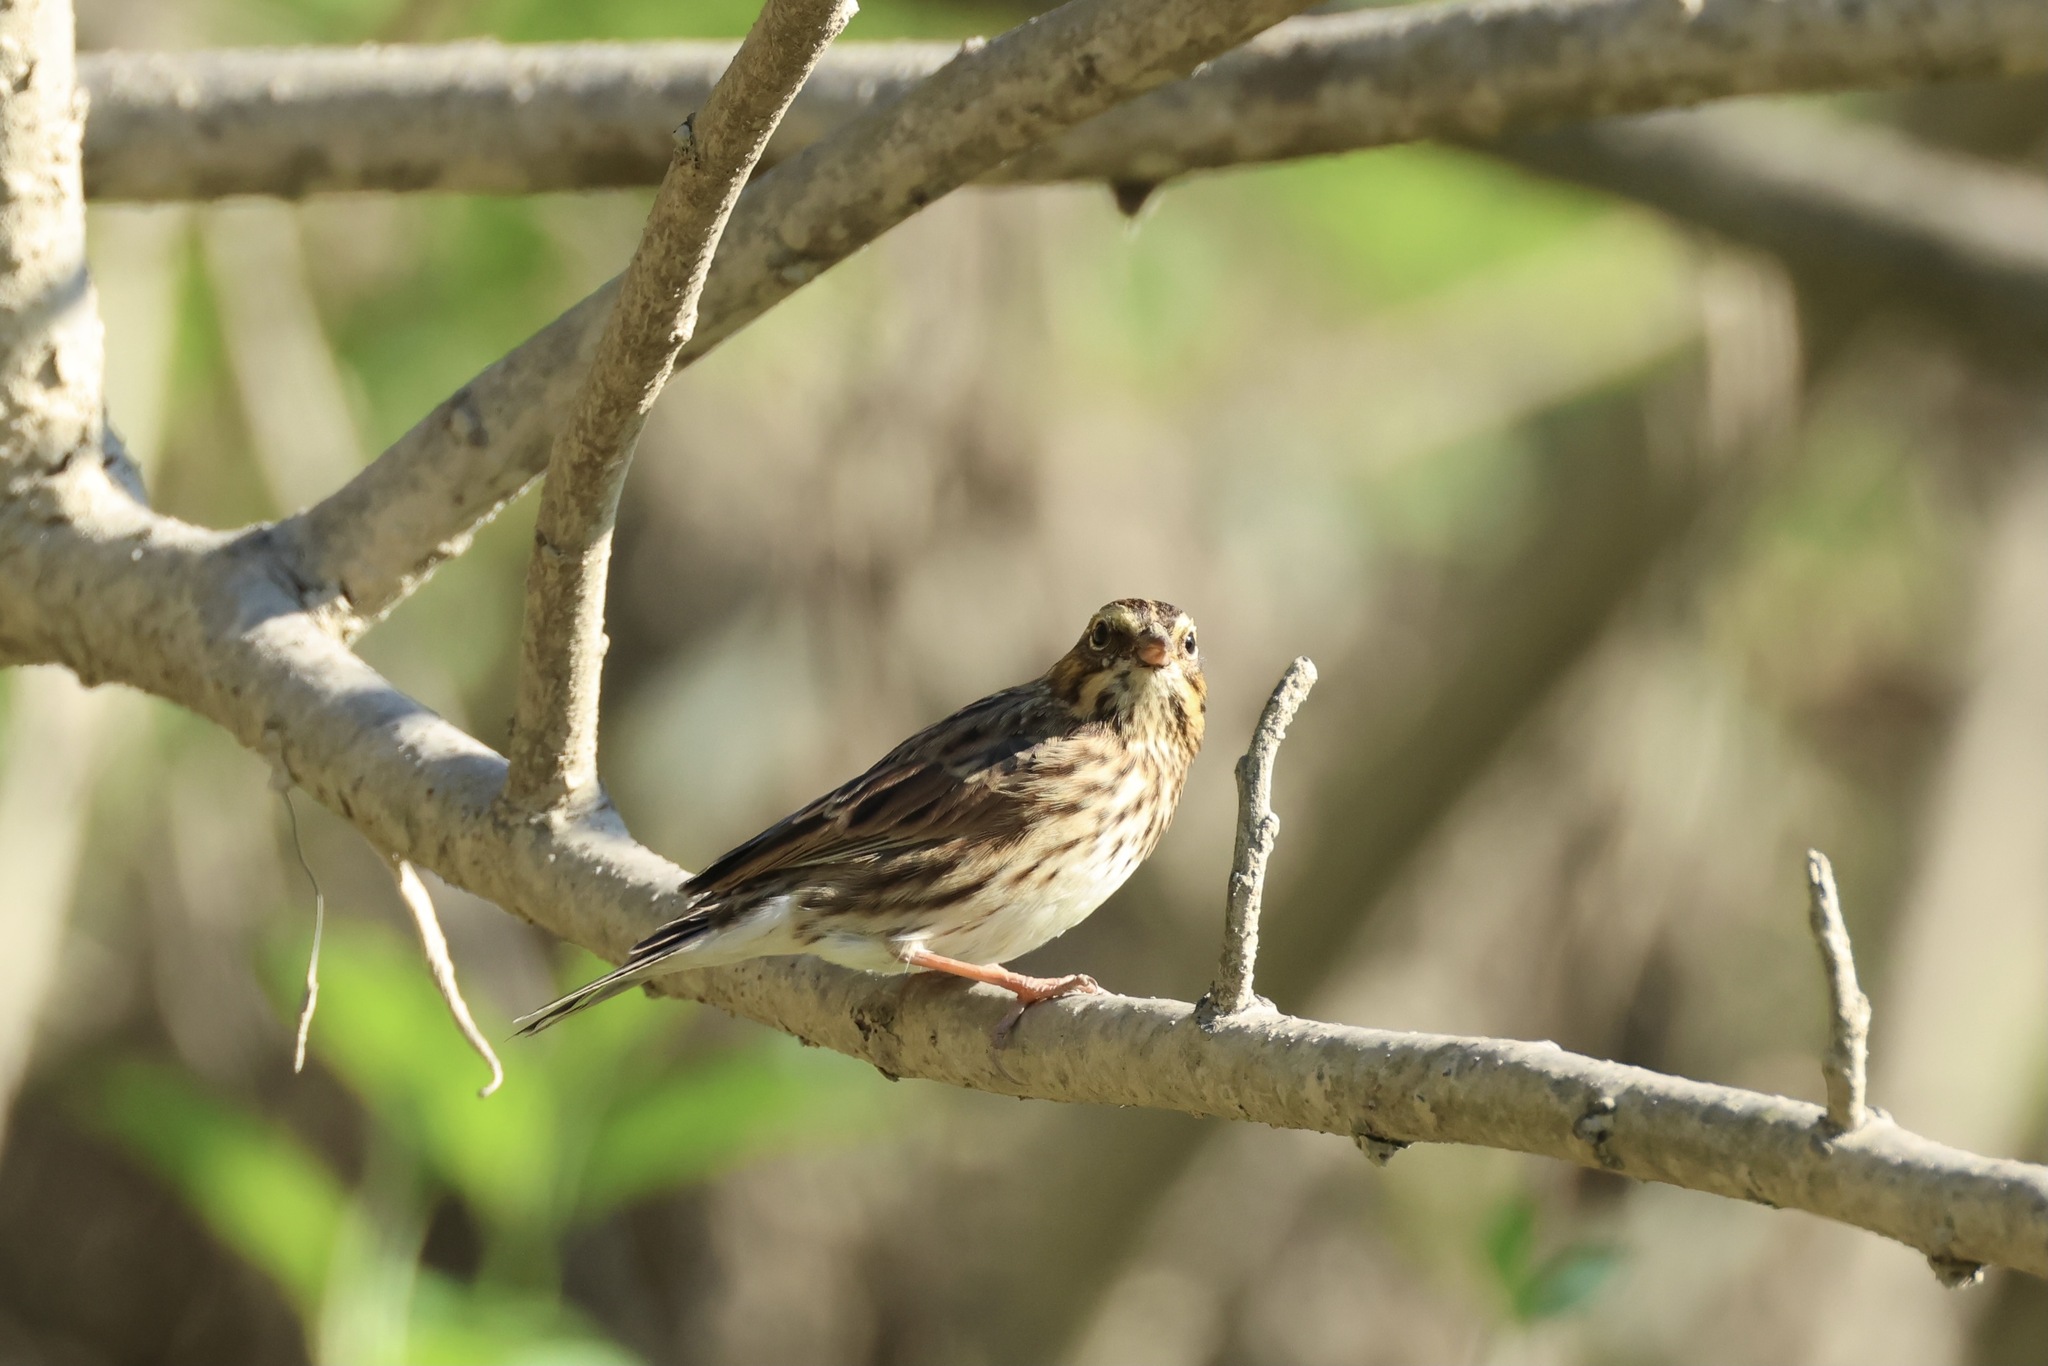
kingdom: Animalia
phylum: Chordata
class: Aves
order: Passeriformes
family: Passerellidae
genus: Passerculus
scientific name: Passerculus sandwichensis
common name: Savannah sparrow
